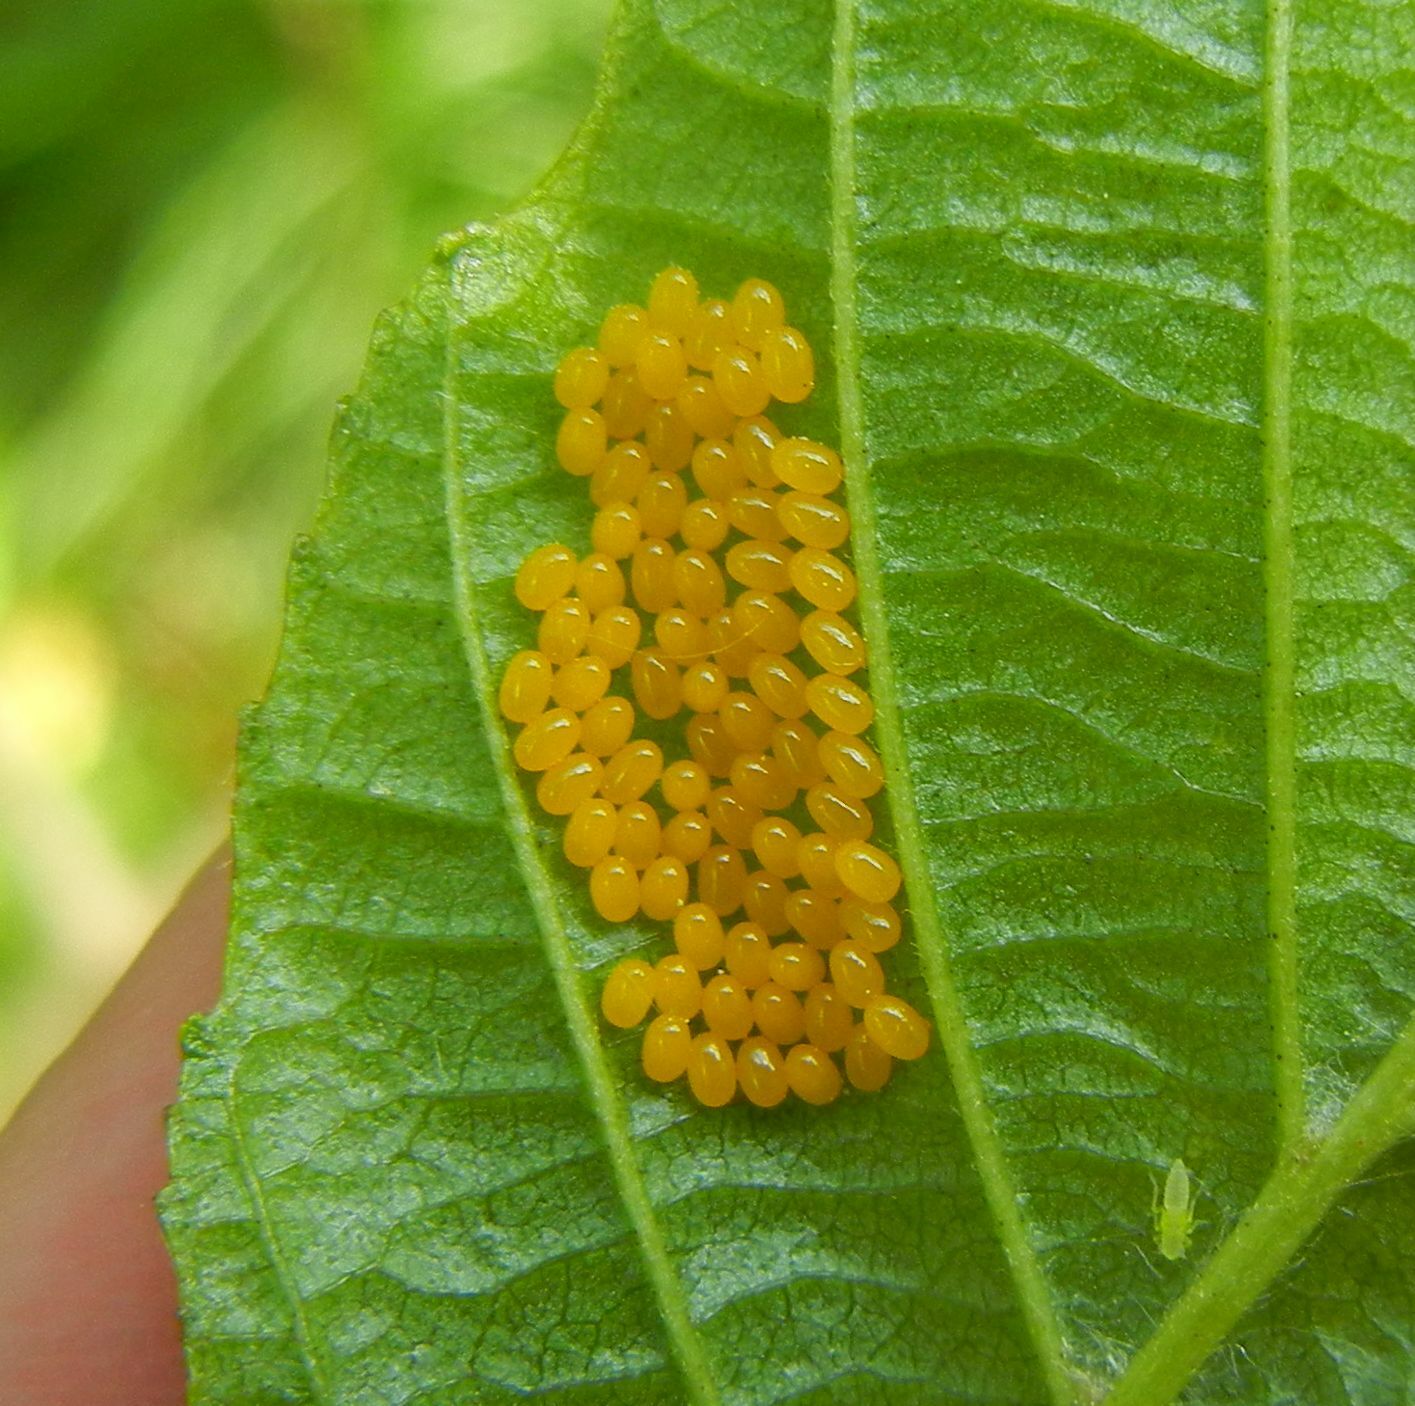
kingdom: Animalia
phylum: Arthropoda
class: Insecta
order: Coleoptera
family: Chrysomelidae
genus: Agelastica
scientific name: Agelastica alni
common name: Alder leaf beetle
